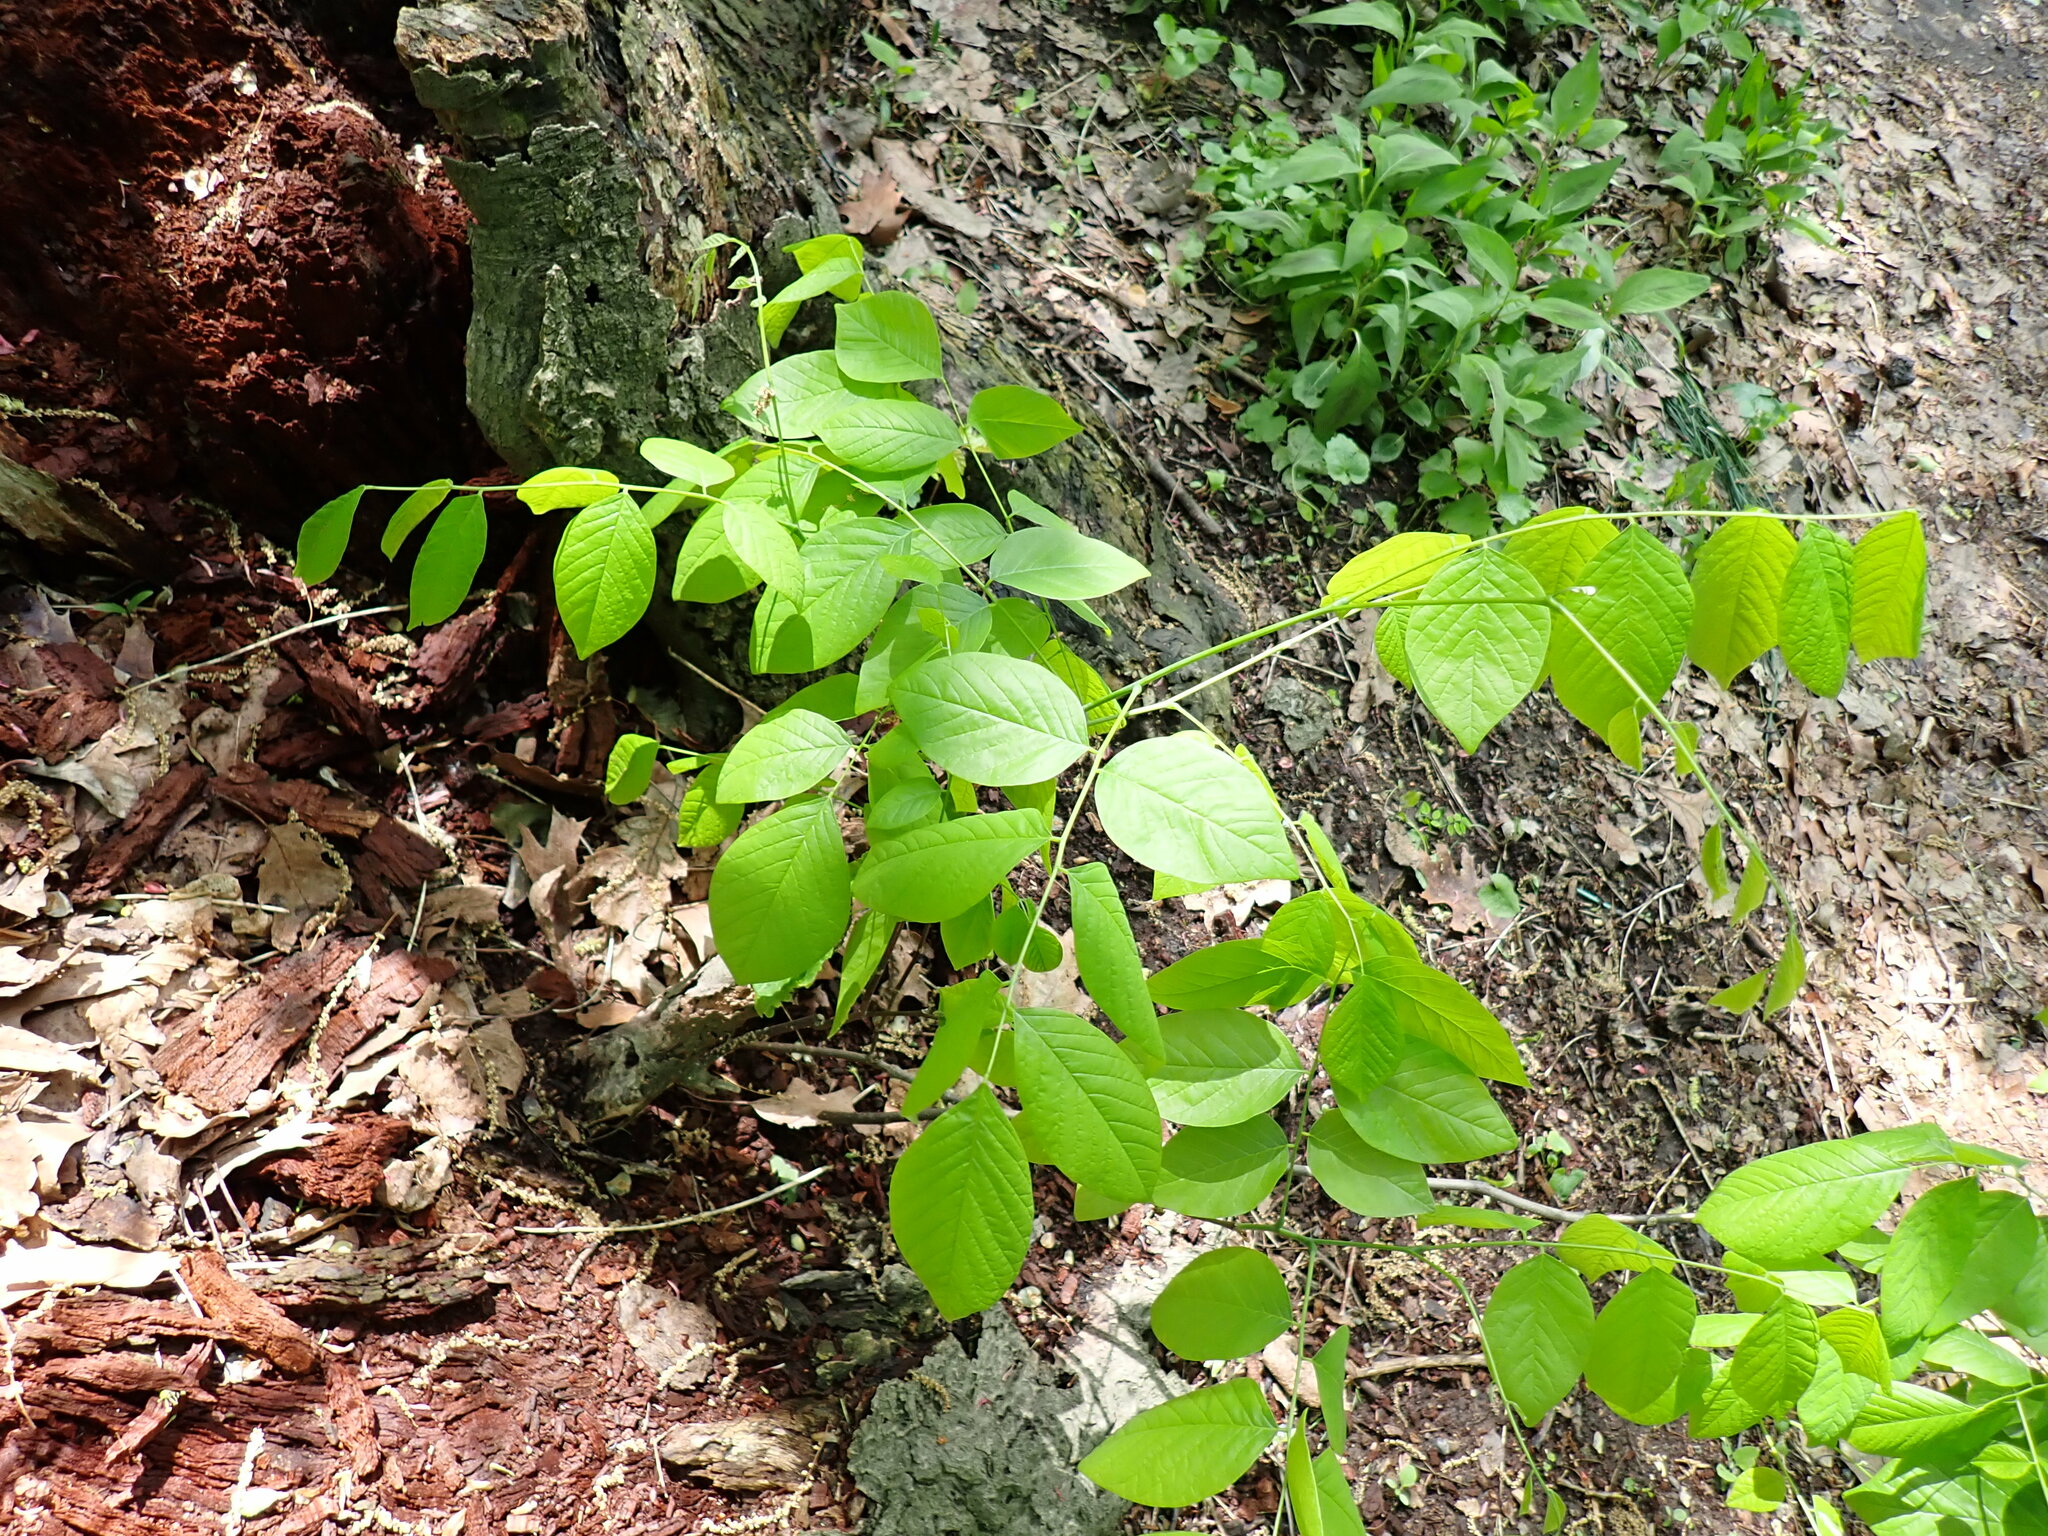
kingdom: Plantae
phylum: Tracheophyta
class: Magnoliopsida
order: Fabales
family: Fabaceae
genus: Cladrastis
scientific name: Cladrastis kentukea
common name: Kentucky yellow-wood
